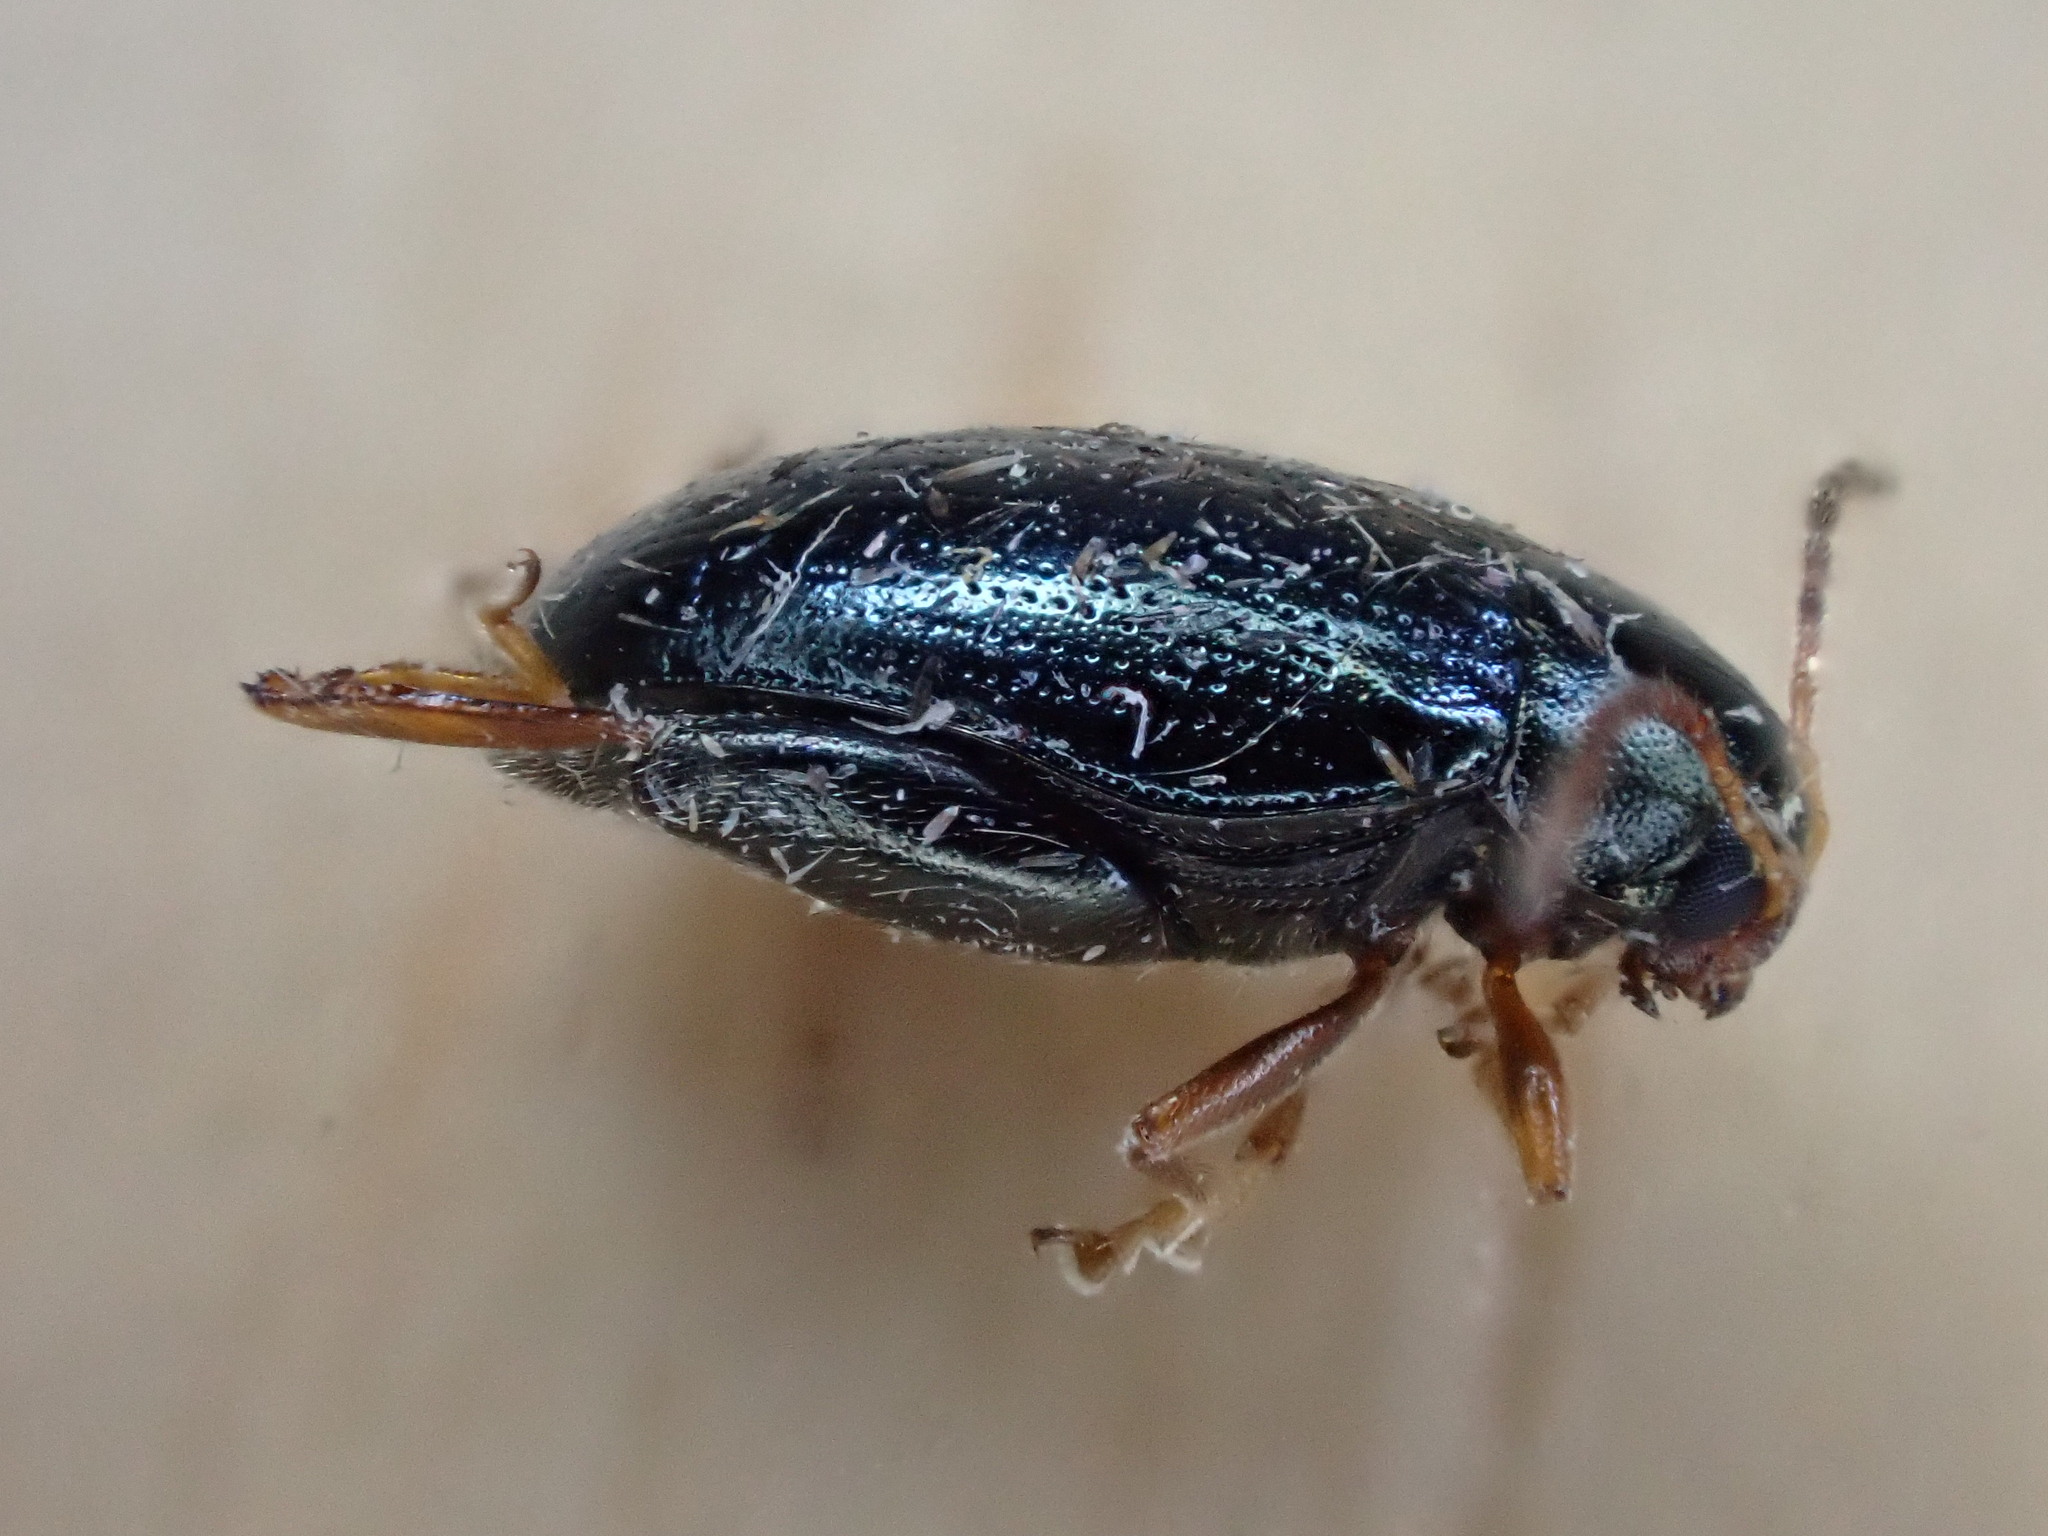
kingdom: Animalia
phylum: Arthropoda
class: Insecta
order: Coleoptera
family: Chrysomelidae
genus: Psylliodes
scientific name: Psylliodes chrysocephalus
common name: Cabbage-stem flea beetle
